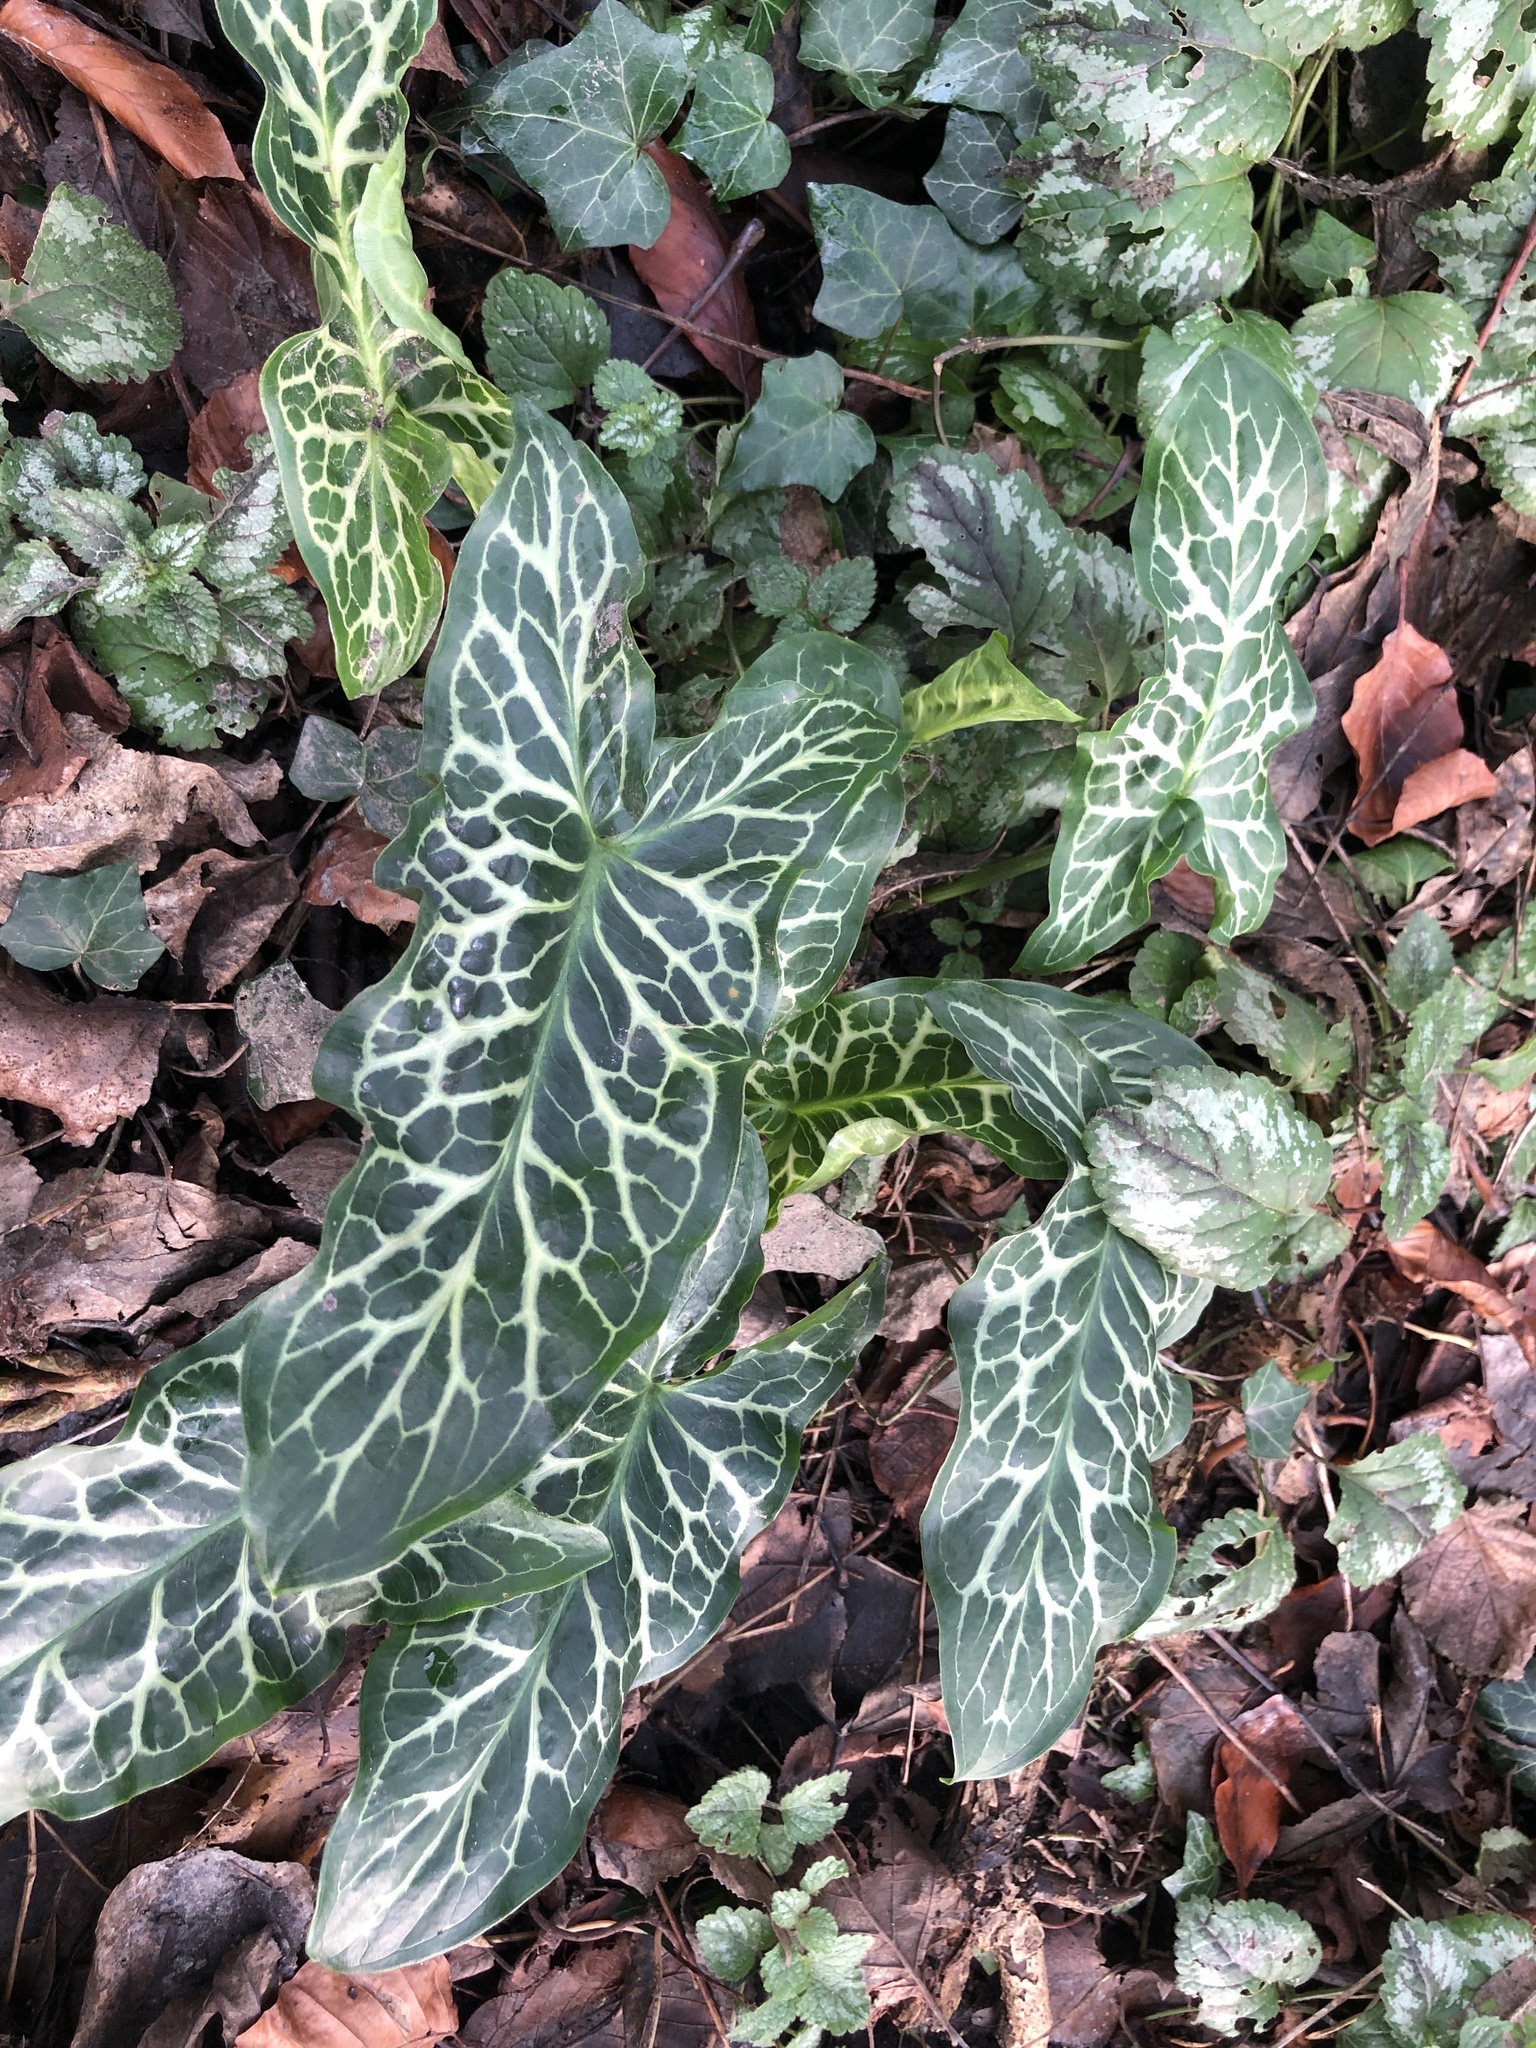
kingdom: Plantae
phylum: Tracheophyta
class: Liliopsida
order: Alismatales
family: Araceae
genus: Arum
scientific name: Arum italicum
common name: Italian lords-and-ladies
